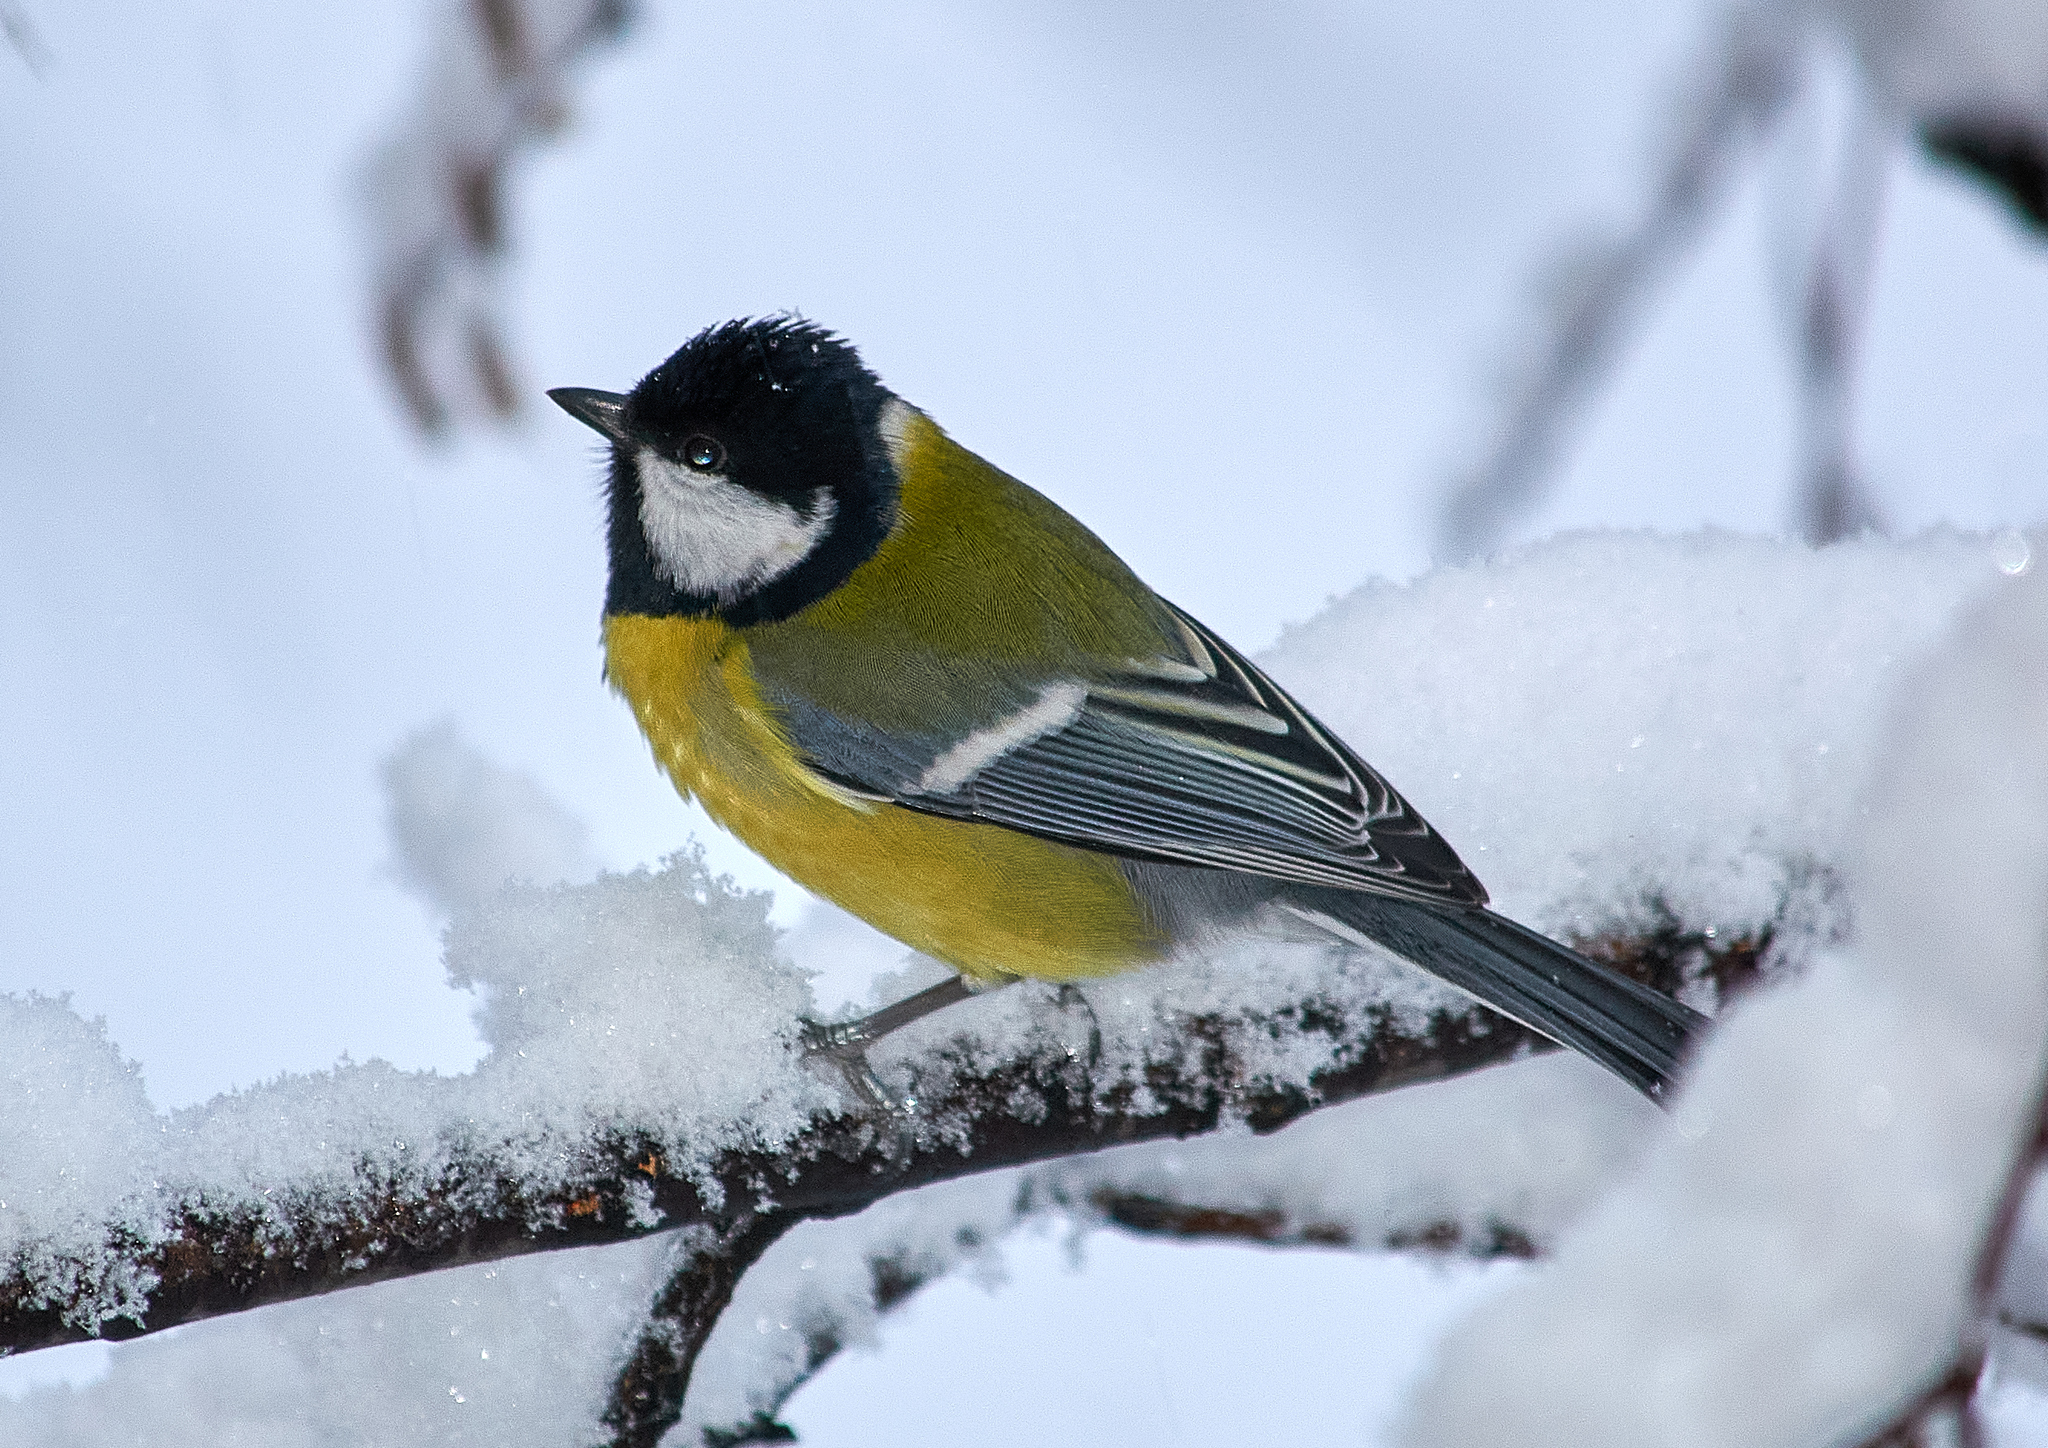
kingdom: Animalia
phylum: Chordata
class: Aves
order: Passeriformes
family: Paridae
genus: Parus
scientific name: Parus major
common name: Great tit
